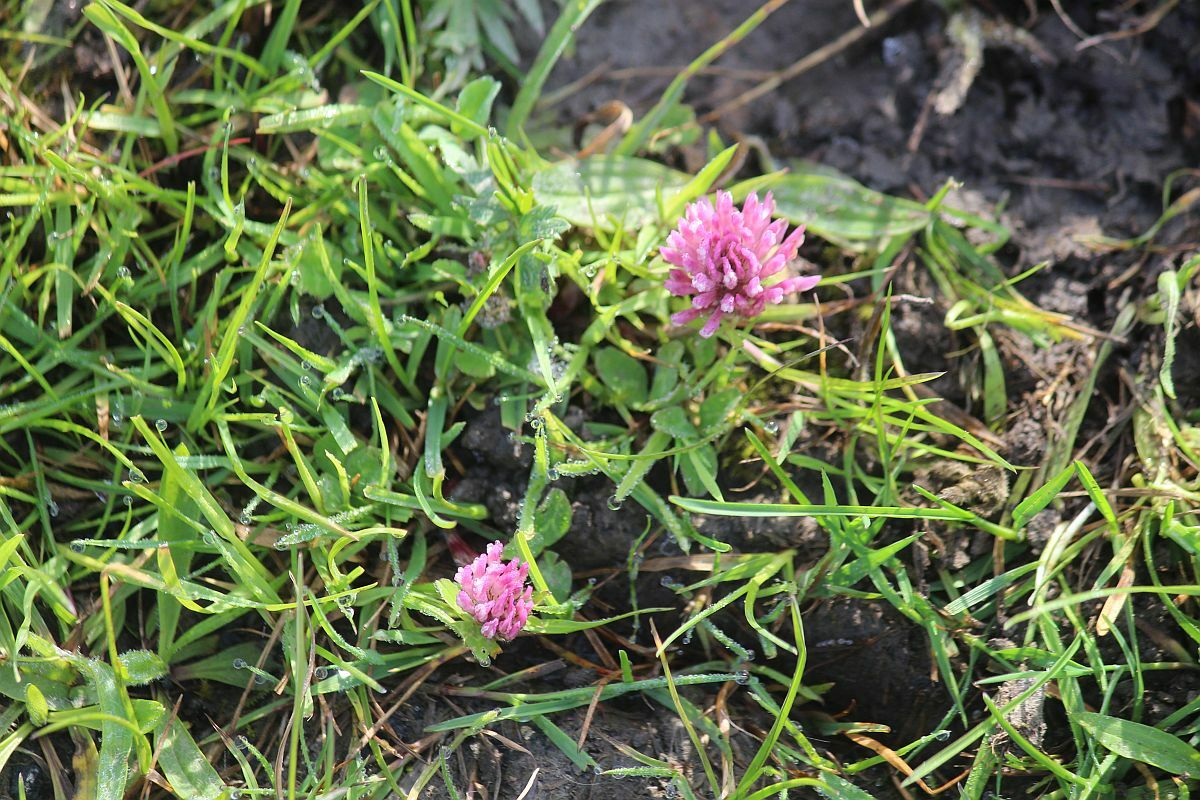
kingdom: Plantae
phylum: Tracheophyta
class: Magnoliopsida
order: Fabales
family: Fabaceae
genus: Trifolium
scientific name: Trifolium pratense
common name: Red clover
